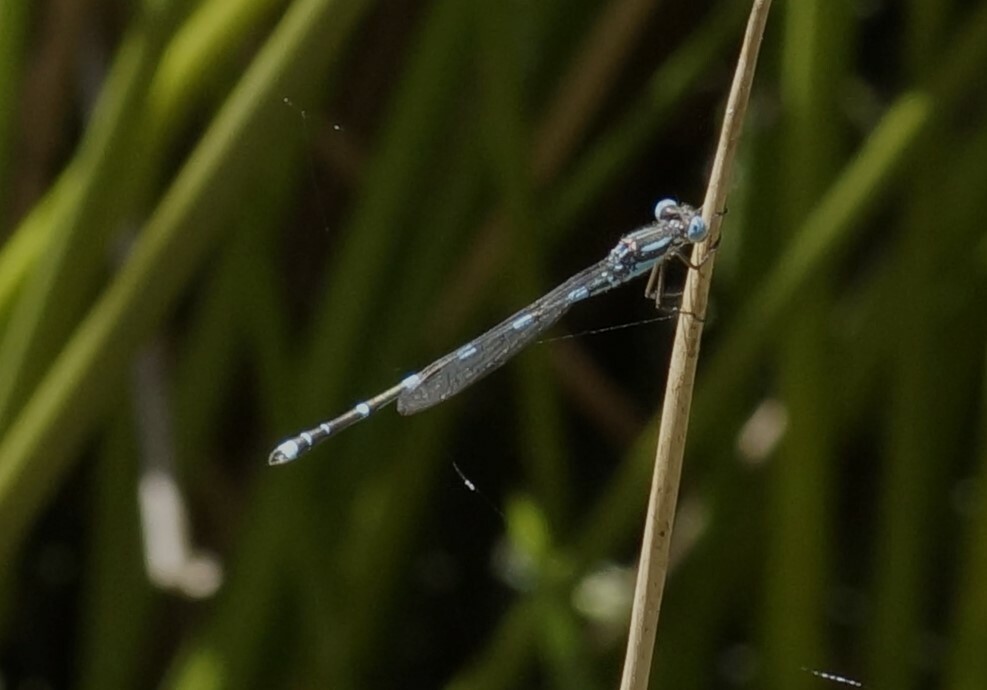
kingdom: Animalia
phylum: Arthropoda
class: Insecta
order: Odonata
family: Lestidae
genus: Austrolestes
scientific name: Austrolestes leda
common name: Wandering ringtail
